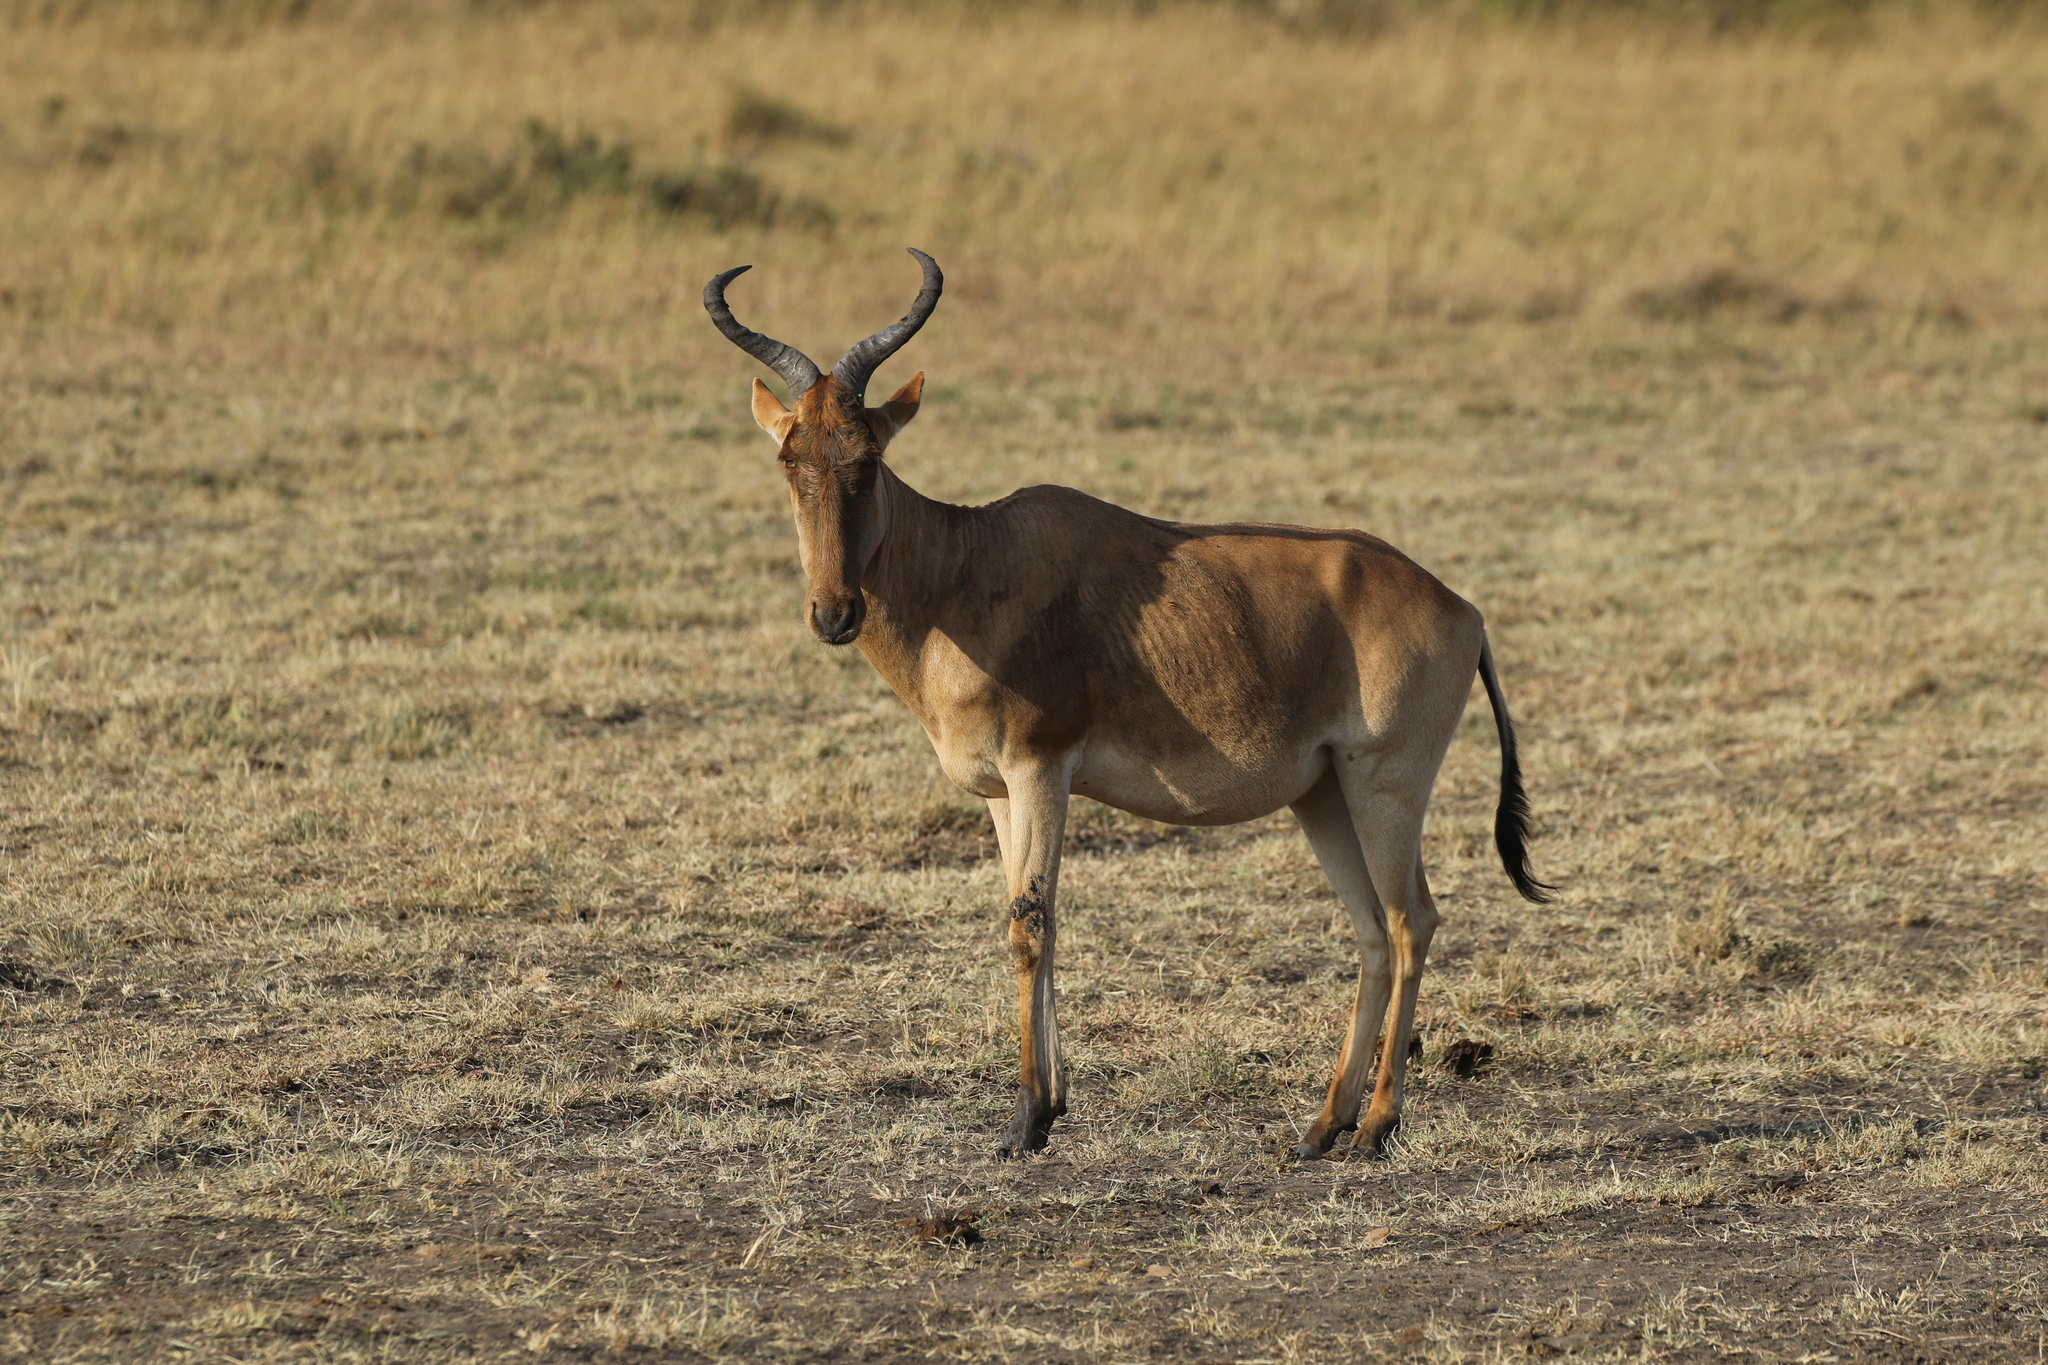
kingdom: Animalia
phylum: Chordata
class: Mammalia
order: Artiodactyla
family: Bovidae
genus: Alcelaphus
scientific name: Alcelaphus buselaphus
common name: Hartebeest
